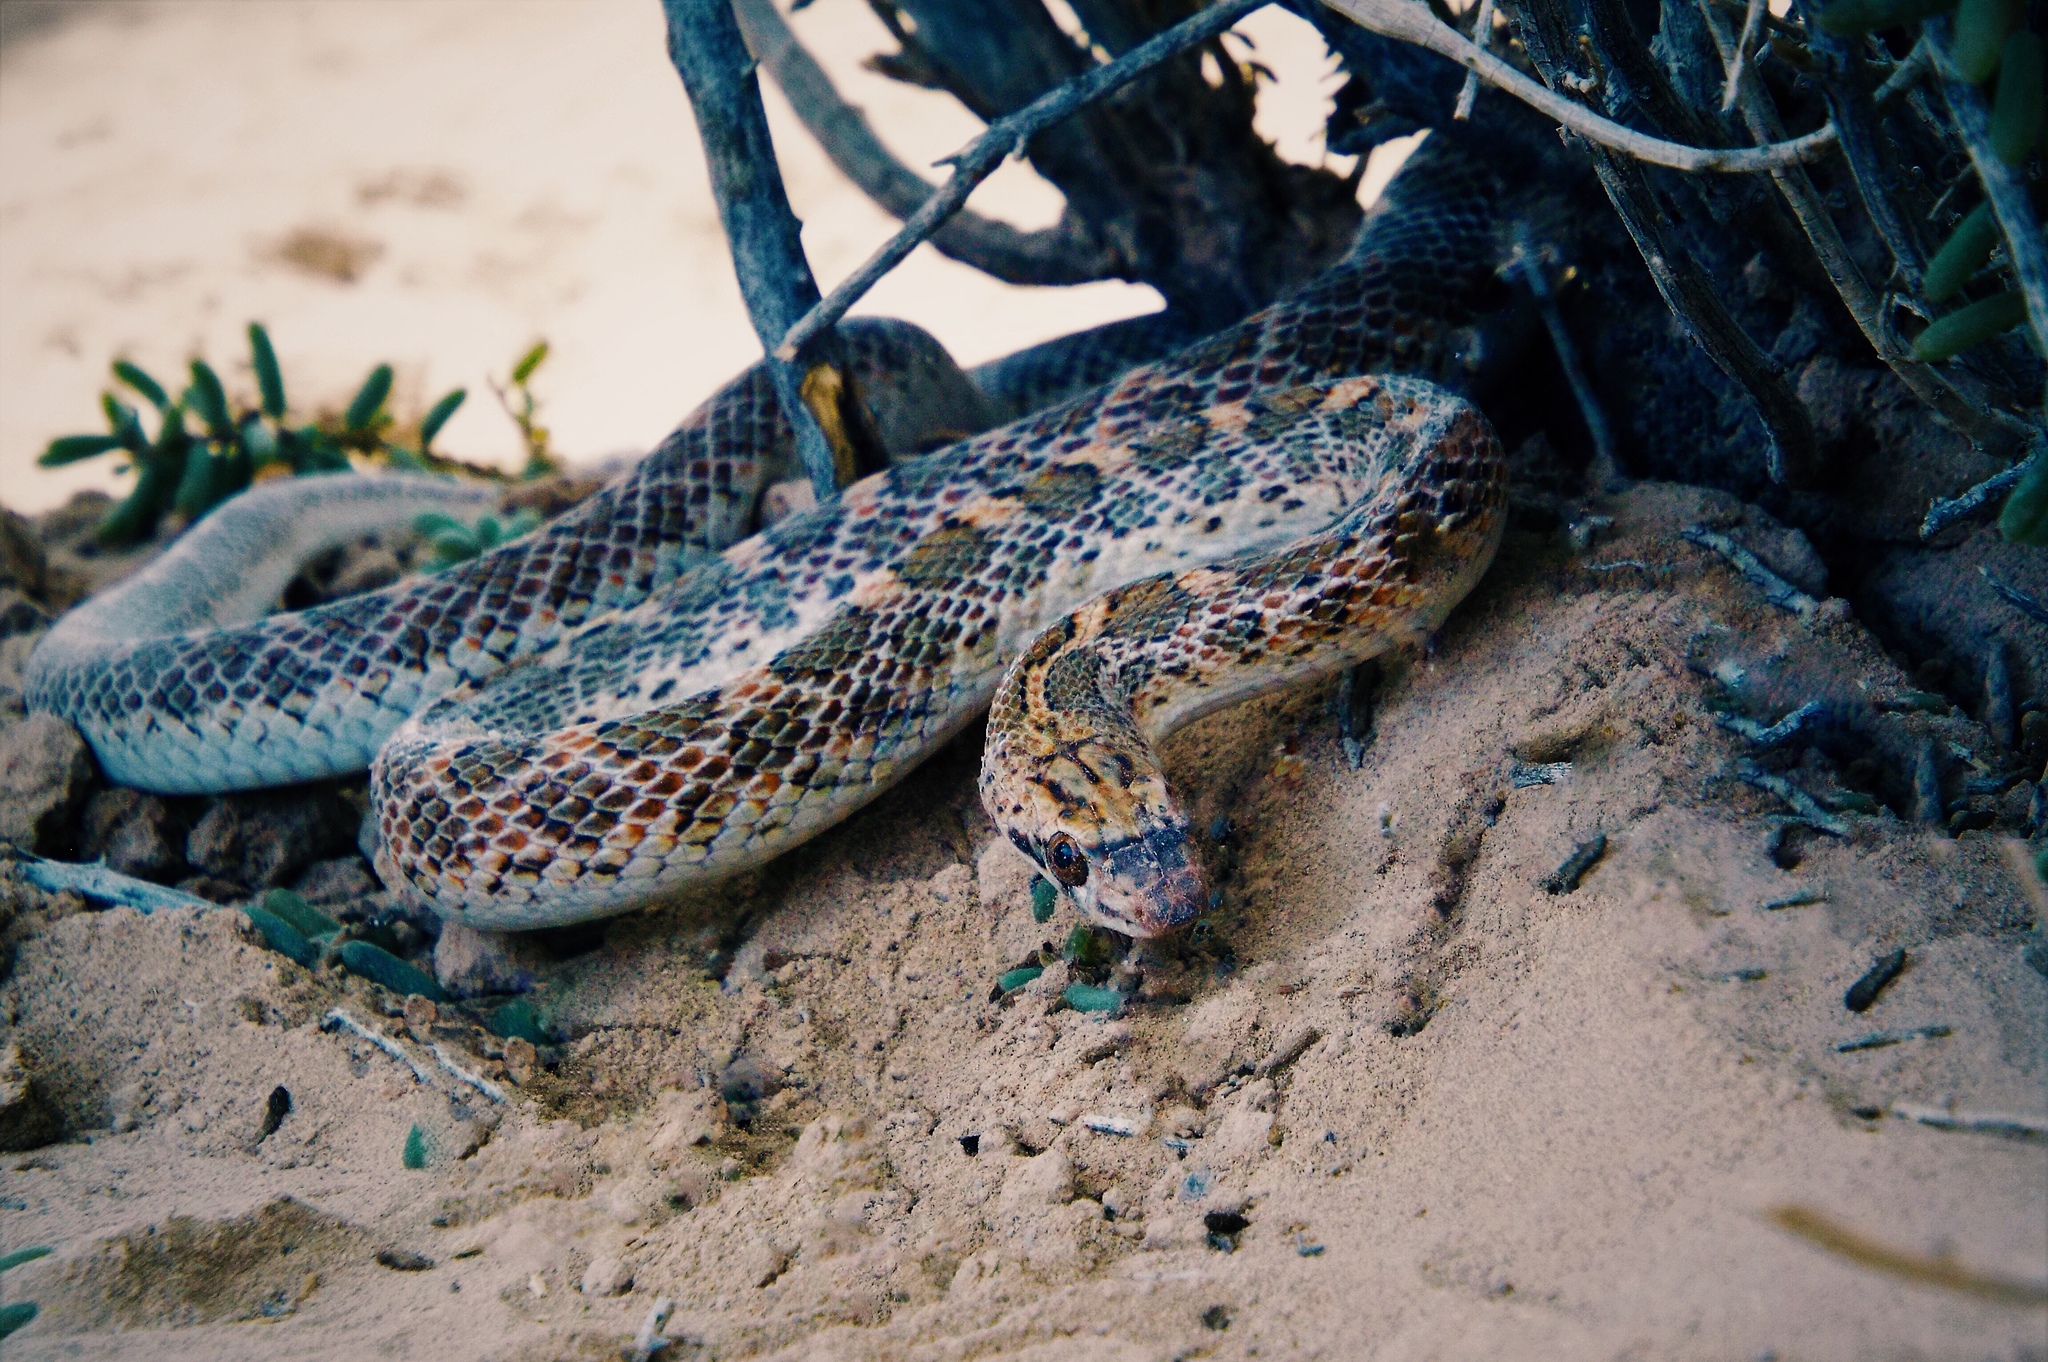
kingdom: Animalia
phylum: Chordata
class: Squamata
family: Colubridae
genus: Arizona
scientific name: Arizona elegans
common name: Glossy snake
